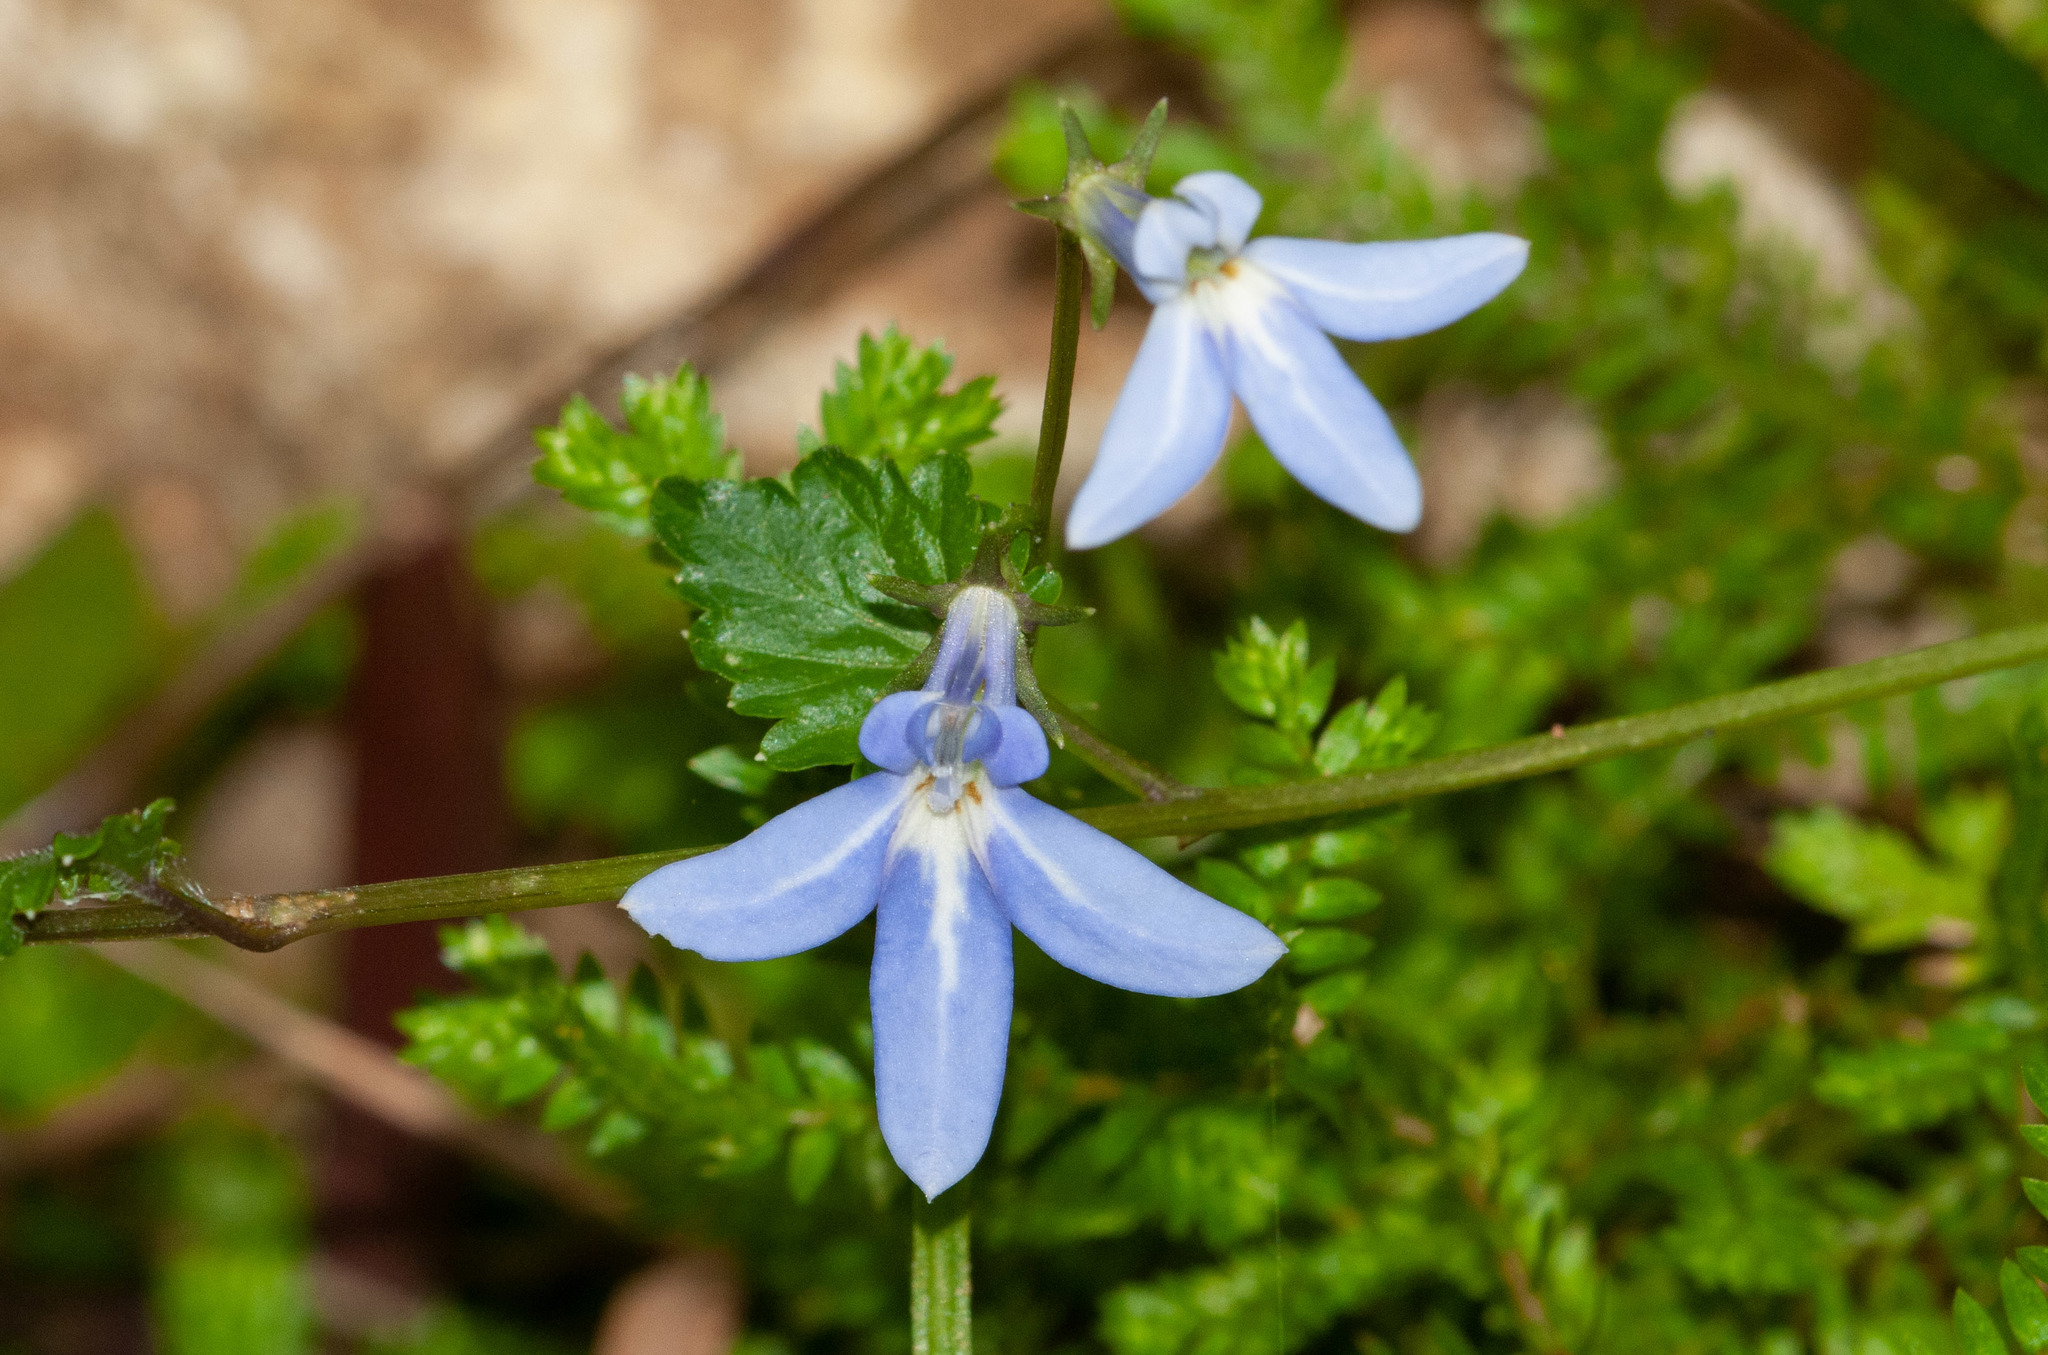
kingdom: Plantae
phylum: Tracheophyta
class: Magnoliopsida
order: Asterales
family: Campanulaceae
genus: Lobelia
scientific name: Lobelia trigonocaulis
